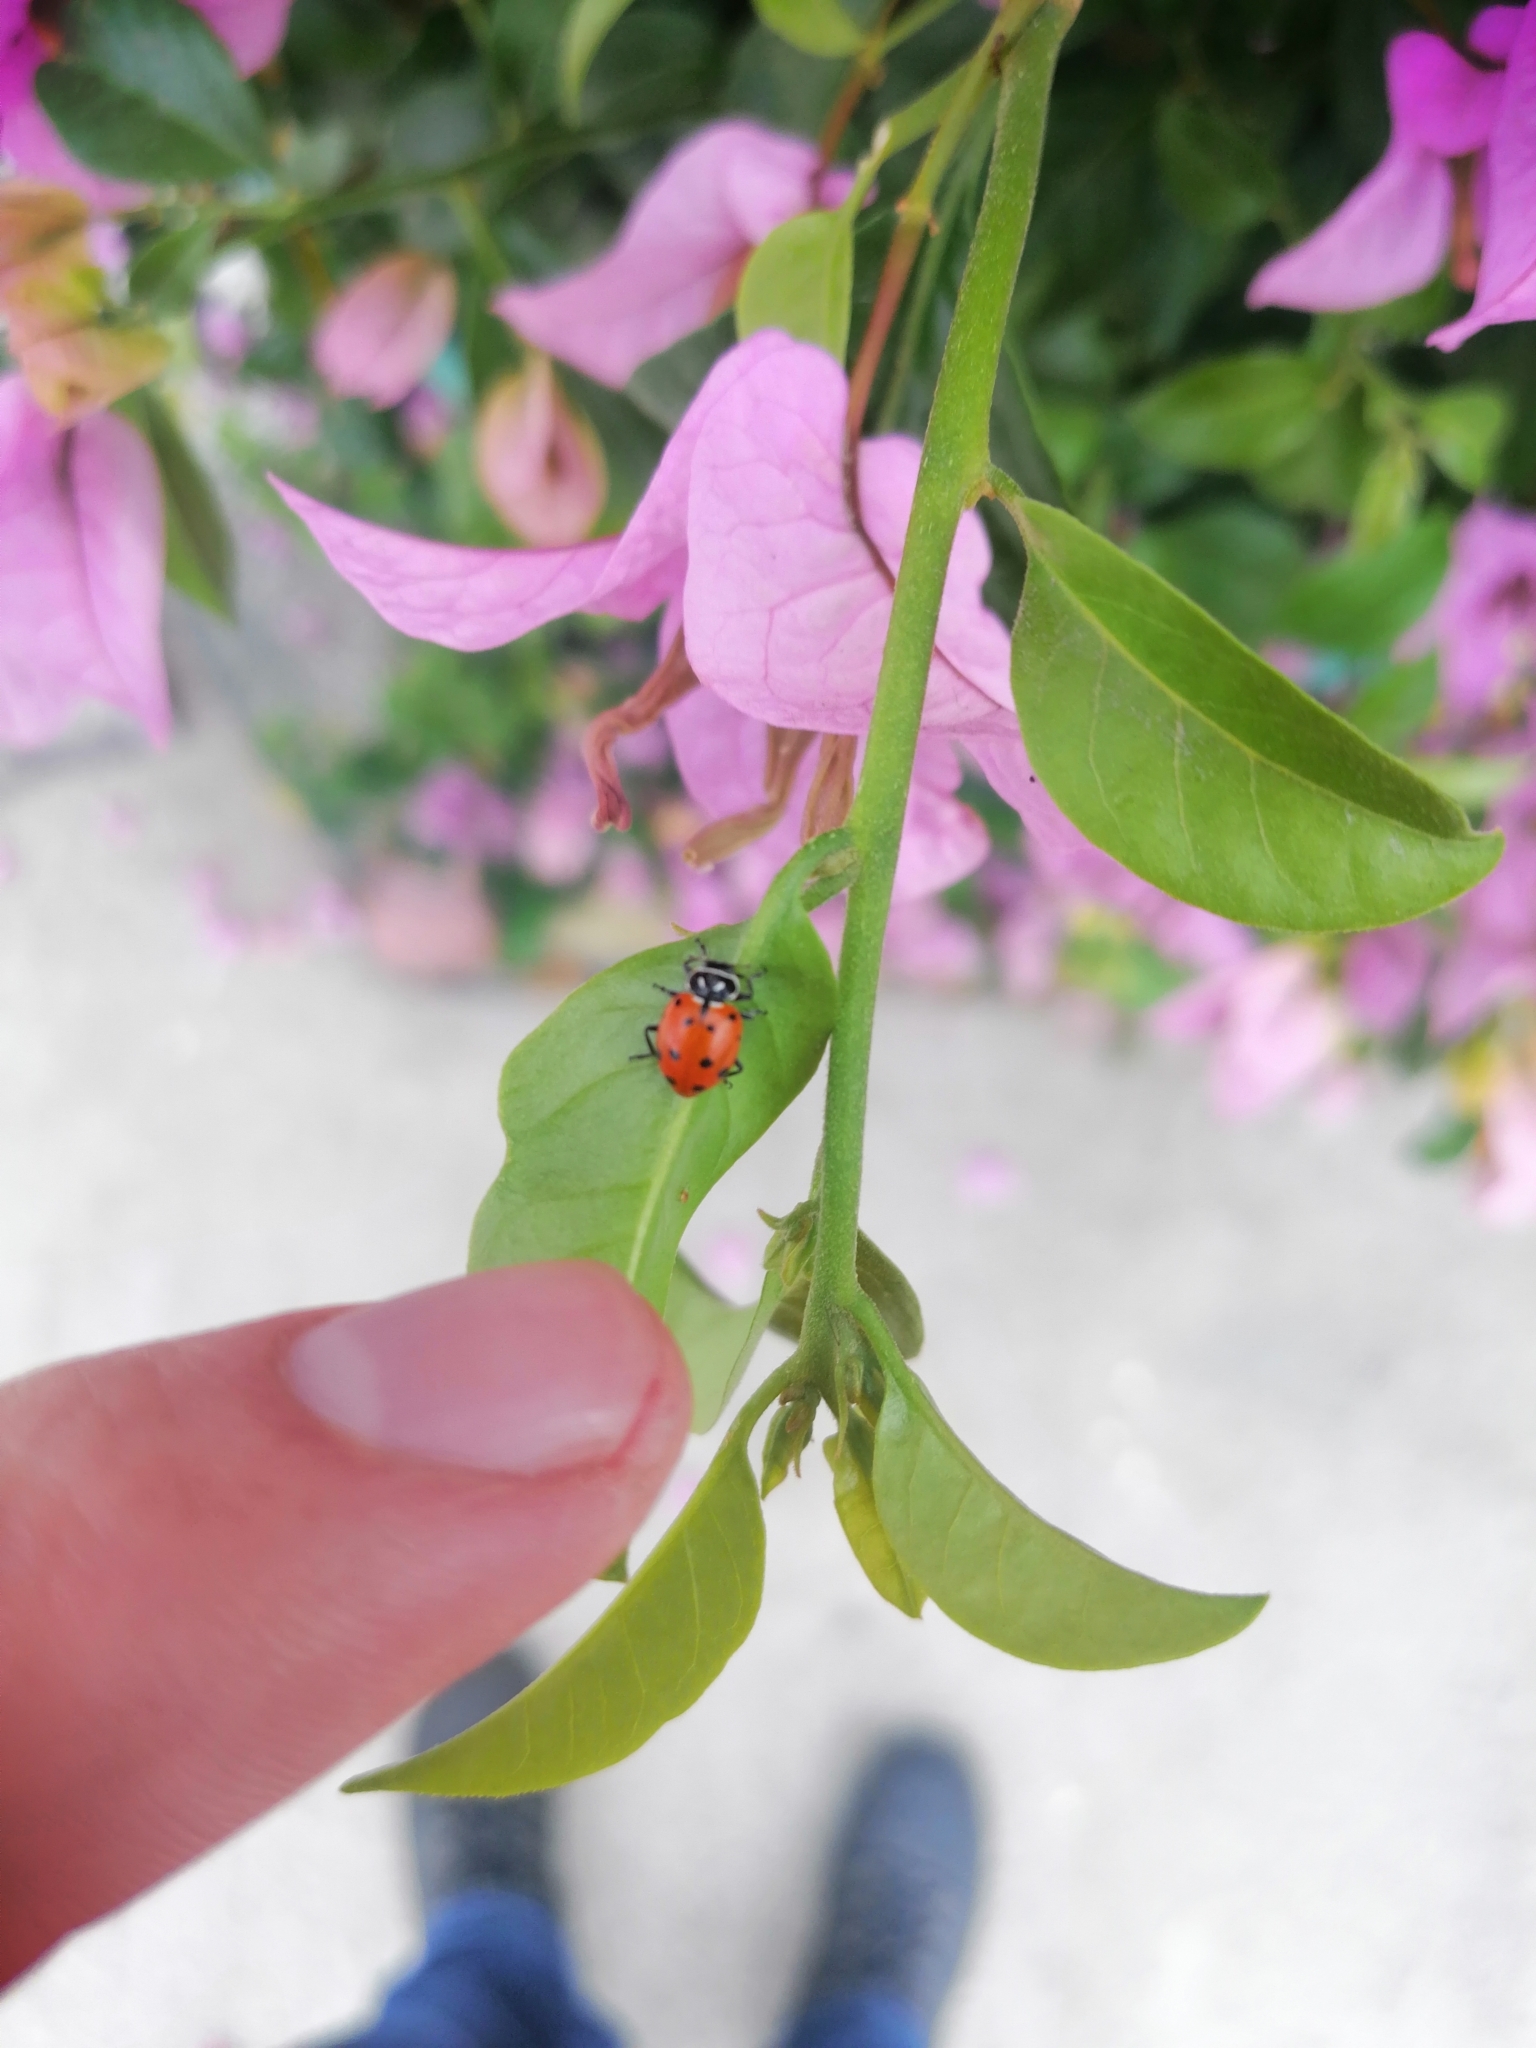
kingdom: Animalia
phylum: Arthropoda
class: Insecta
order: Coleoptera
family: Coccinellidae
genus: Hippodamia
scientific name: Hippodamia convergens
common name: Convergent lady beetle
